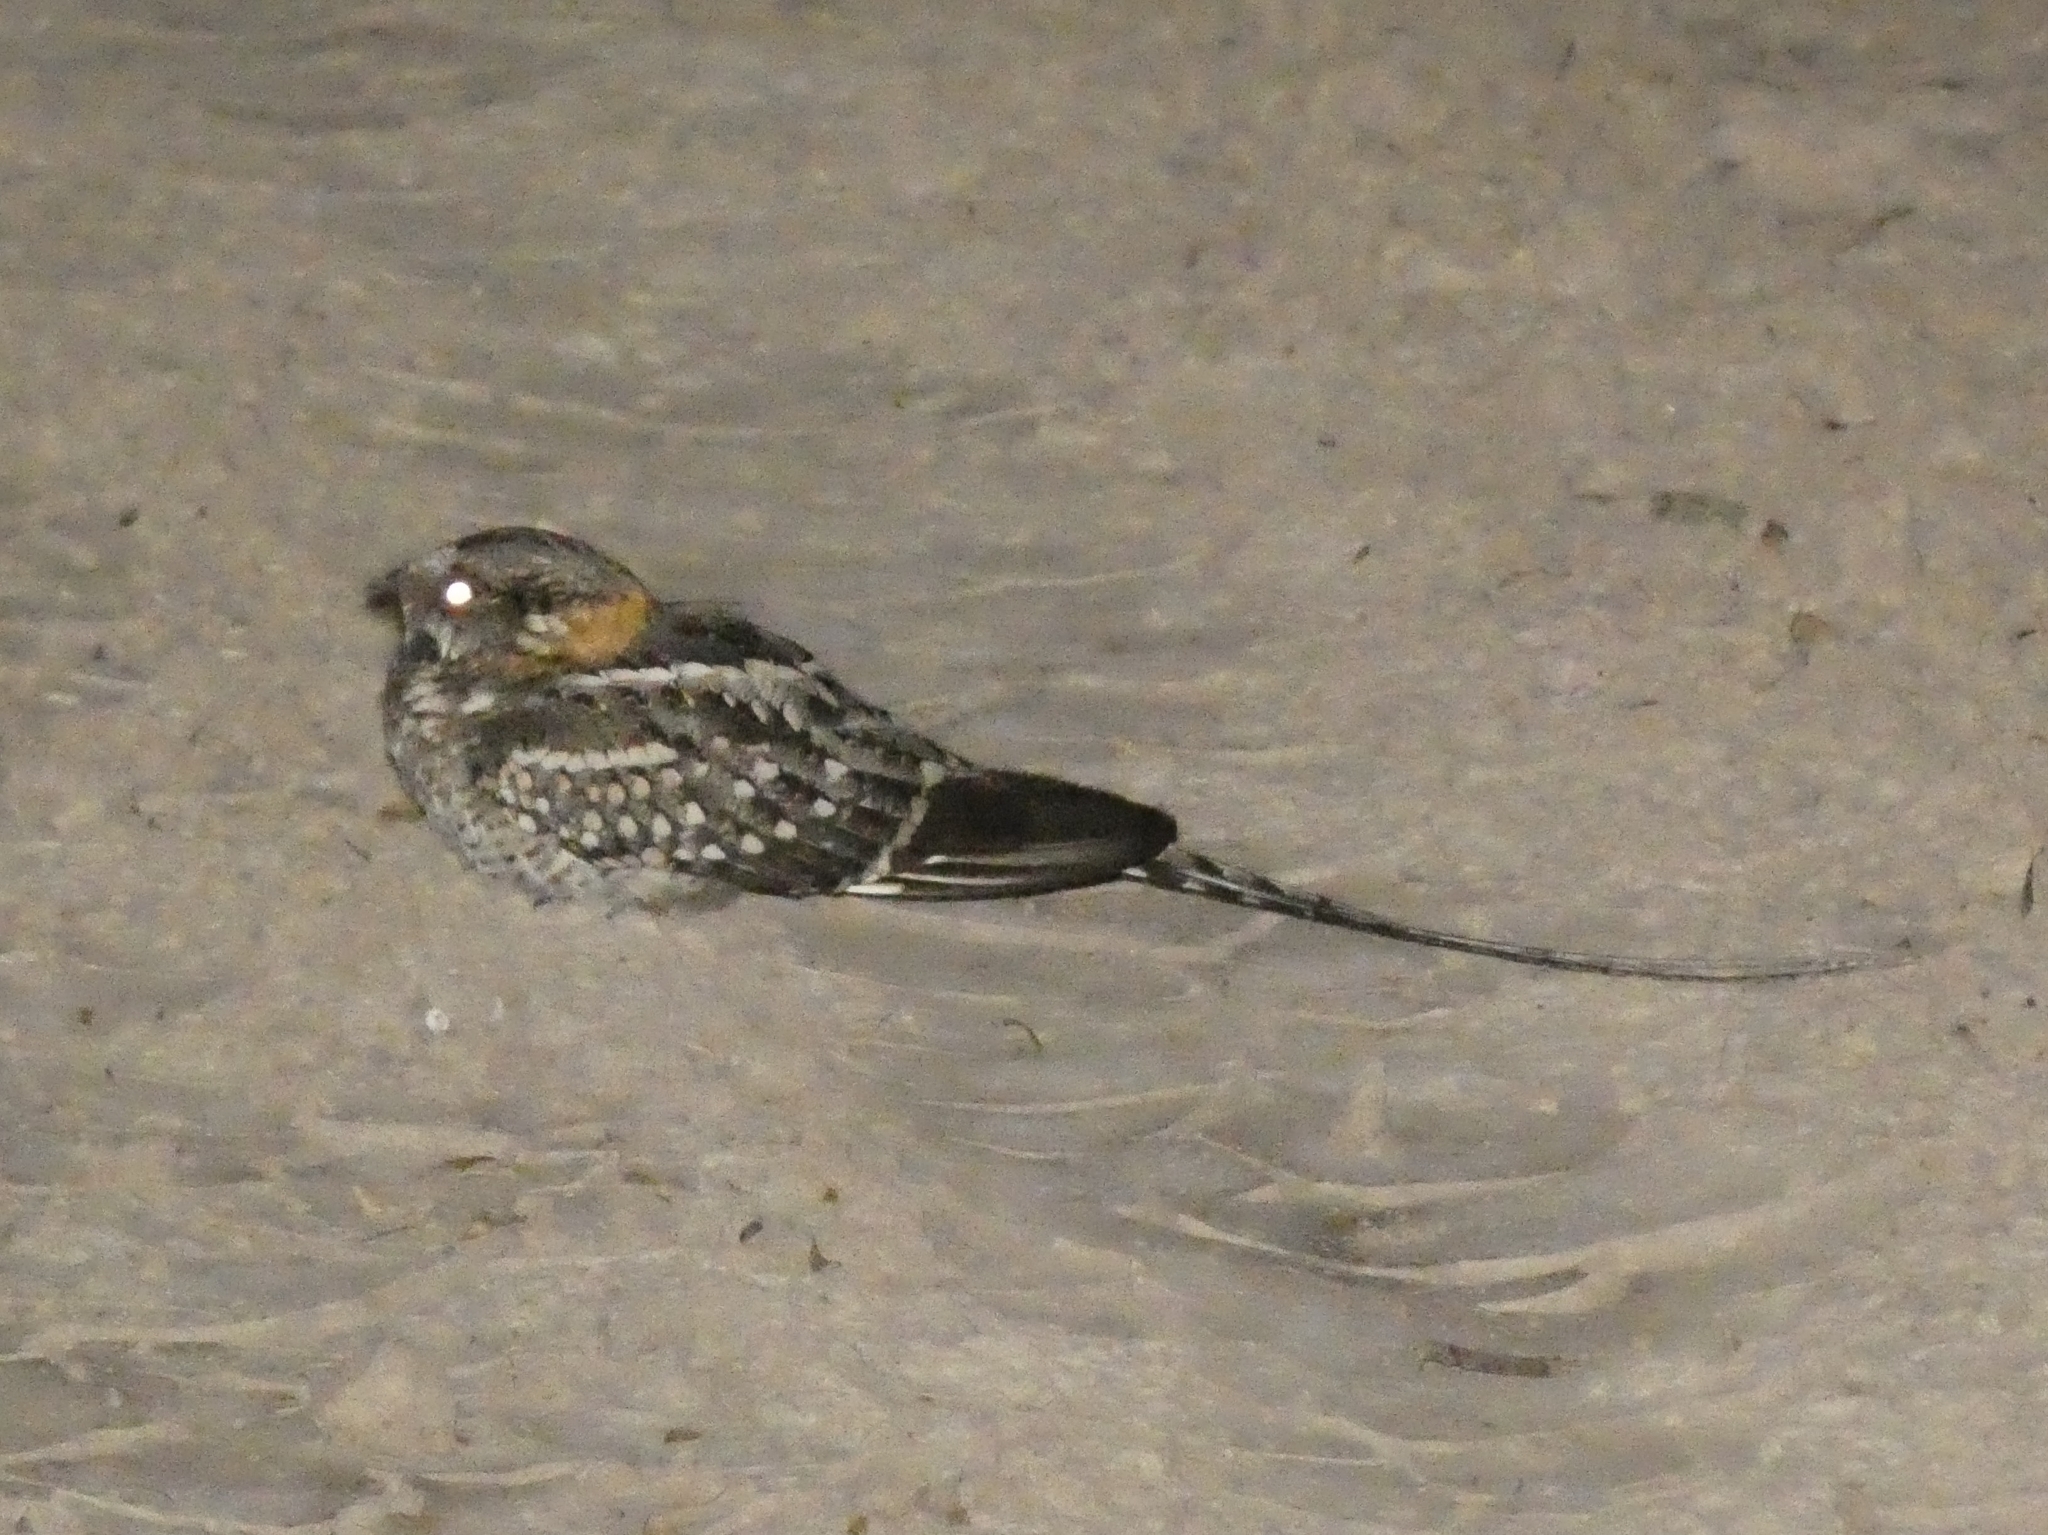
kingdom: Animalia
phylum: Chordata
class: Aves
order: Caprimulgiformes
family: Caprimulgidae
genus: Hydropsalis
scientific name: Hydropsalis torquata
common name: Scissor-tailed nightjar
